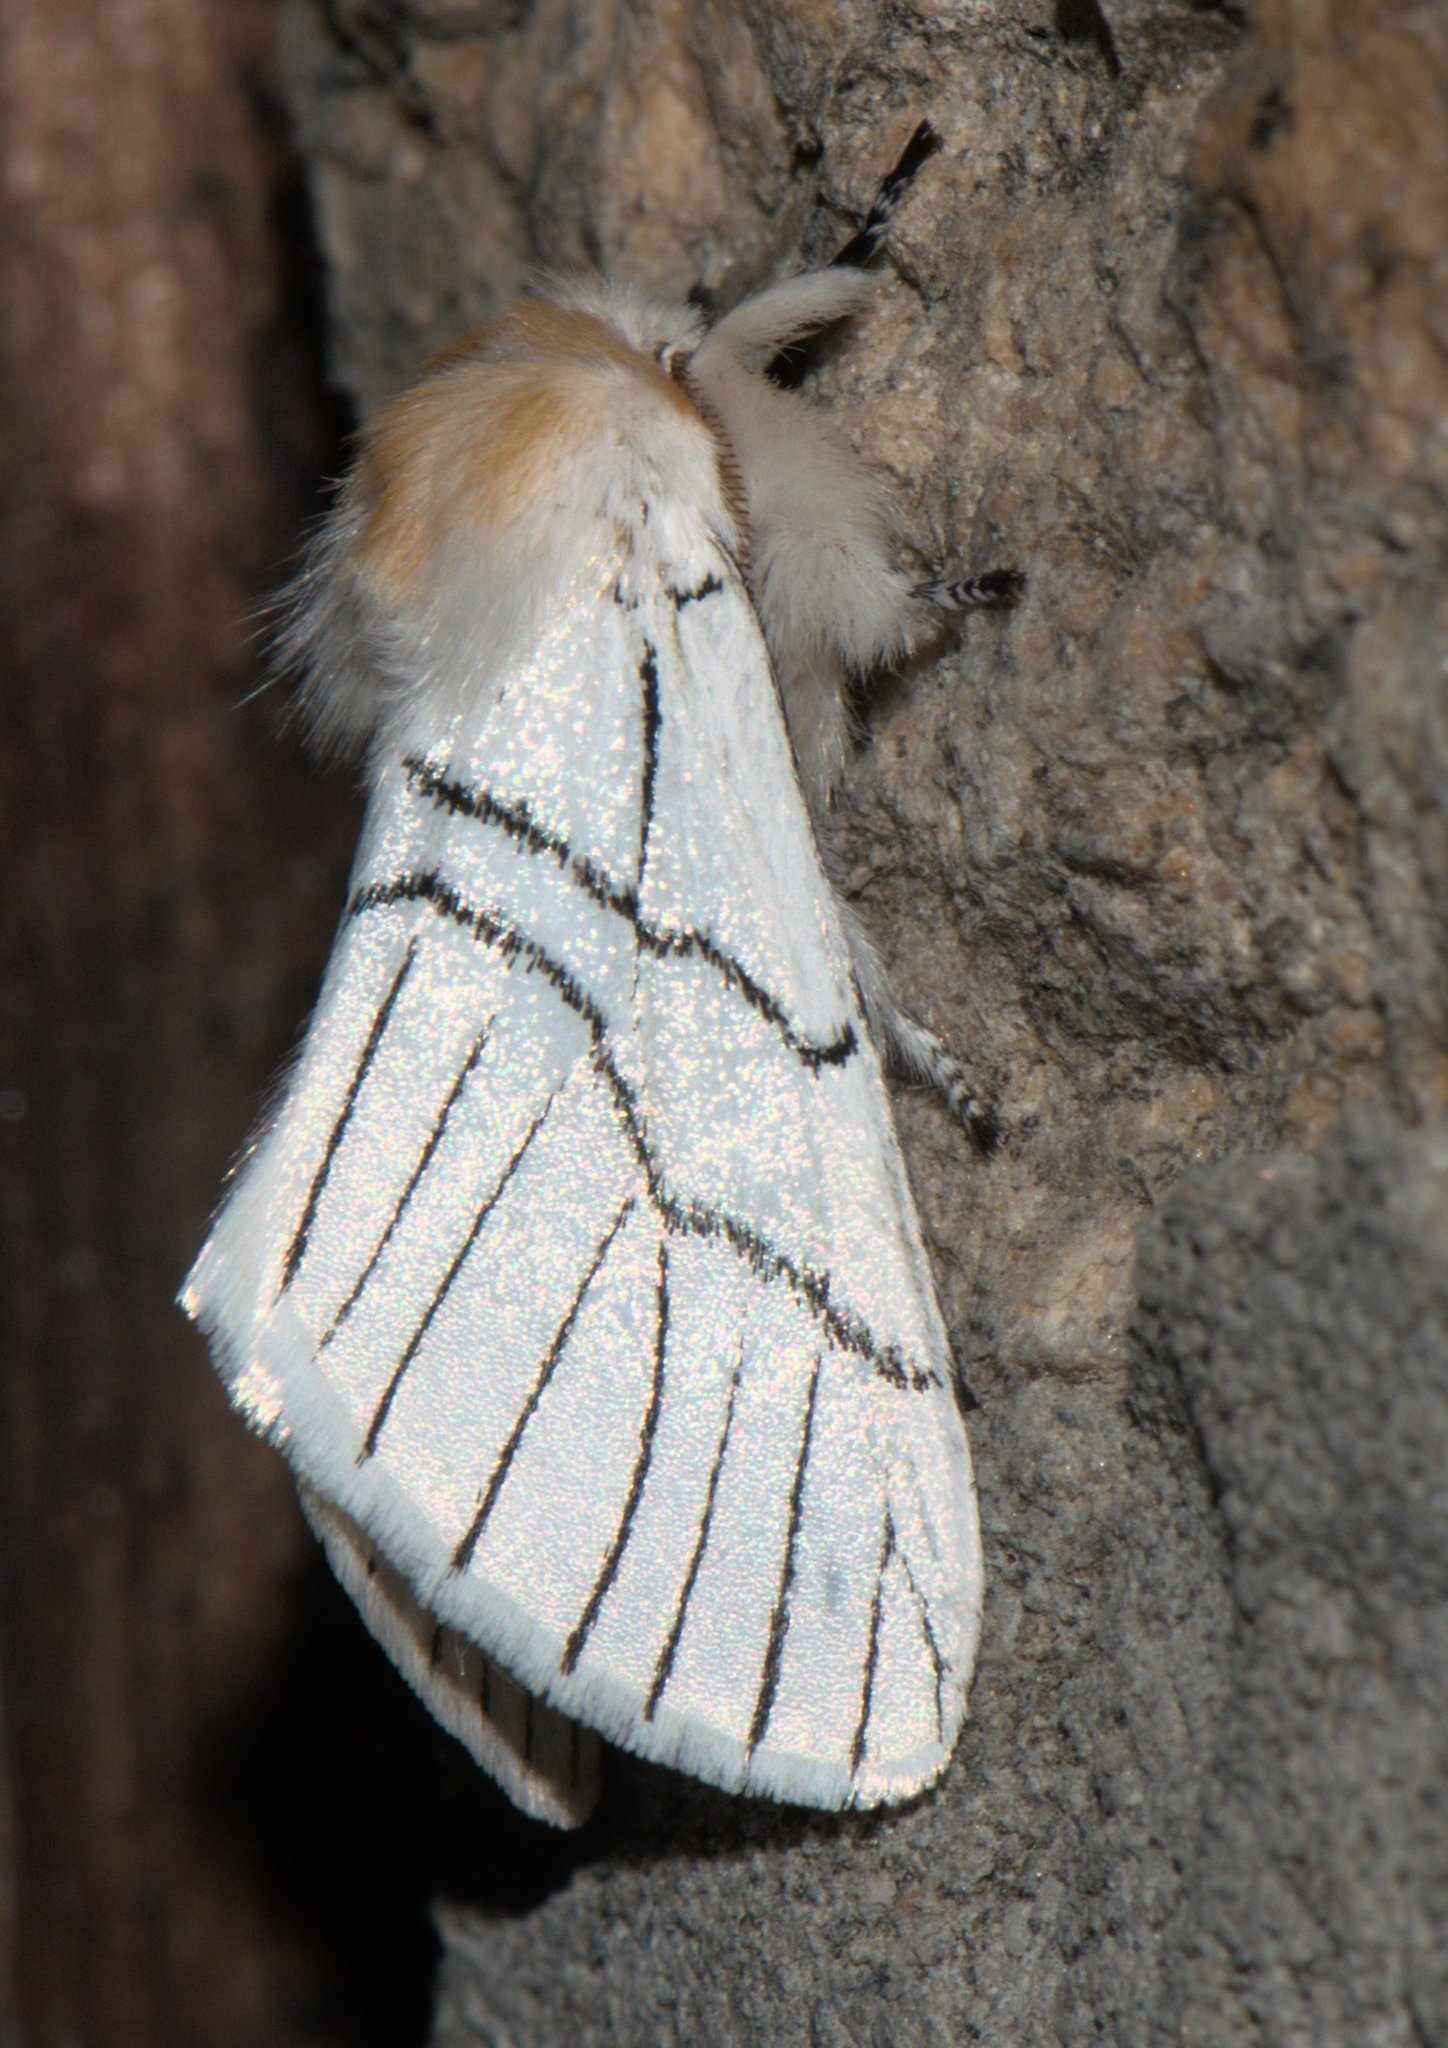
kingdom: Animalia
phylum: Arthropoda
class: Insecta
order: Lepidoptera
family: Notodontidae
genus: Oligoclona
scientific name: Oligoclona chrysolopha
